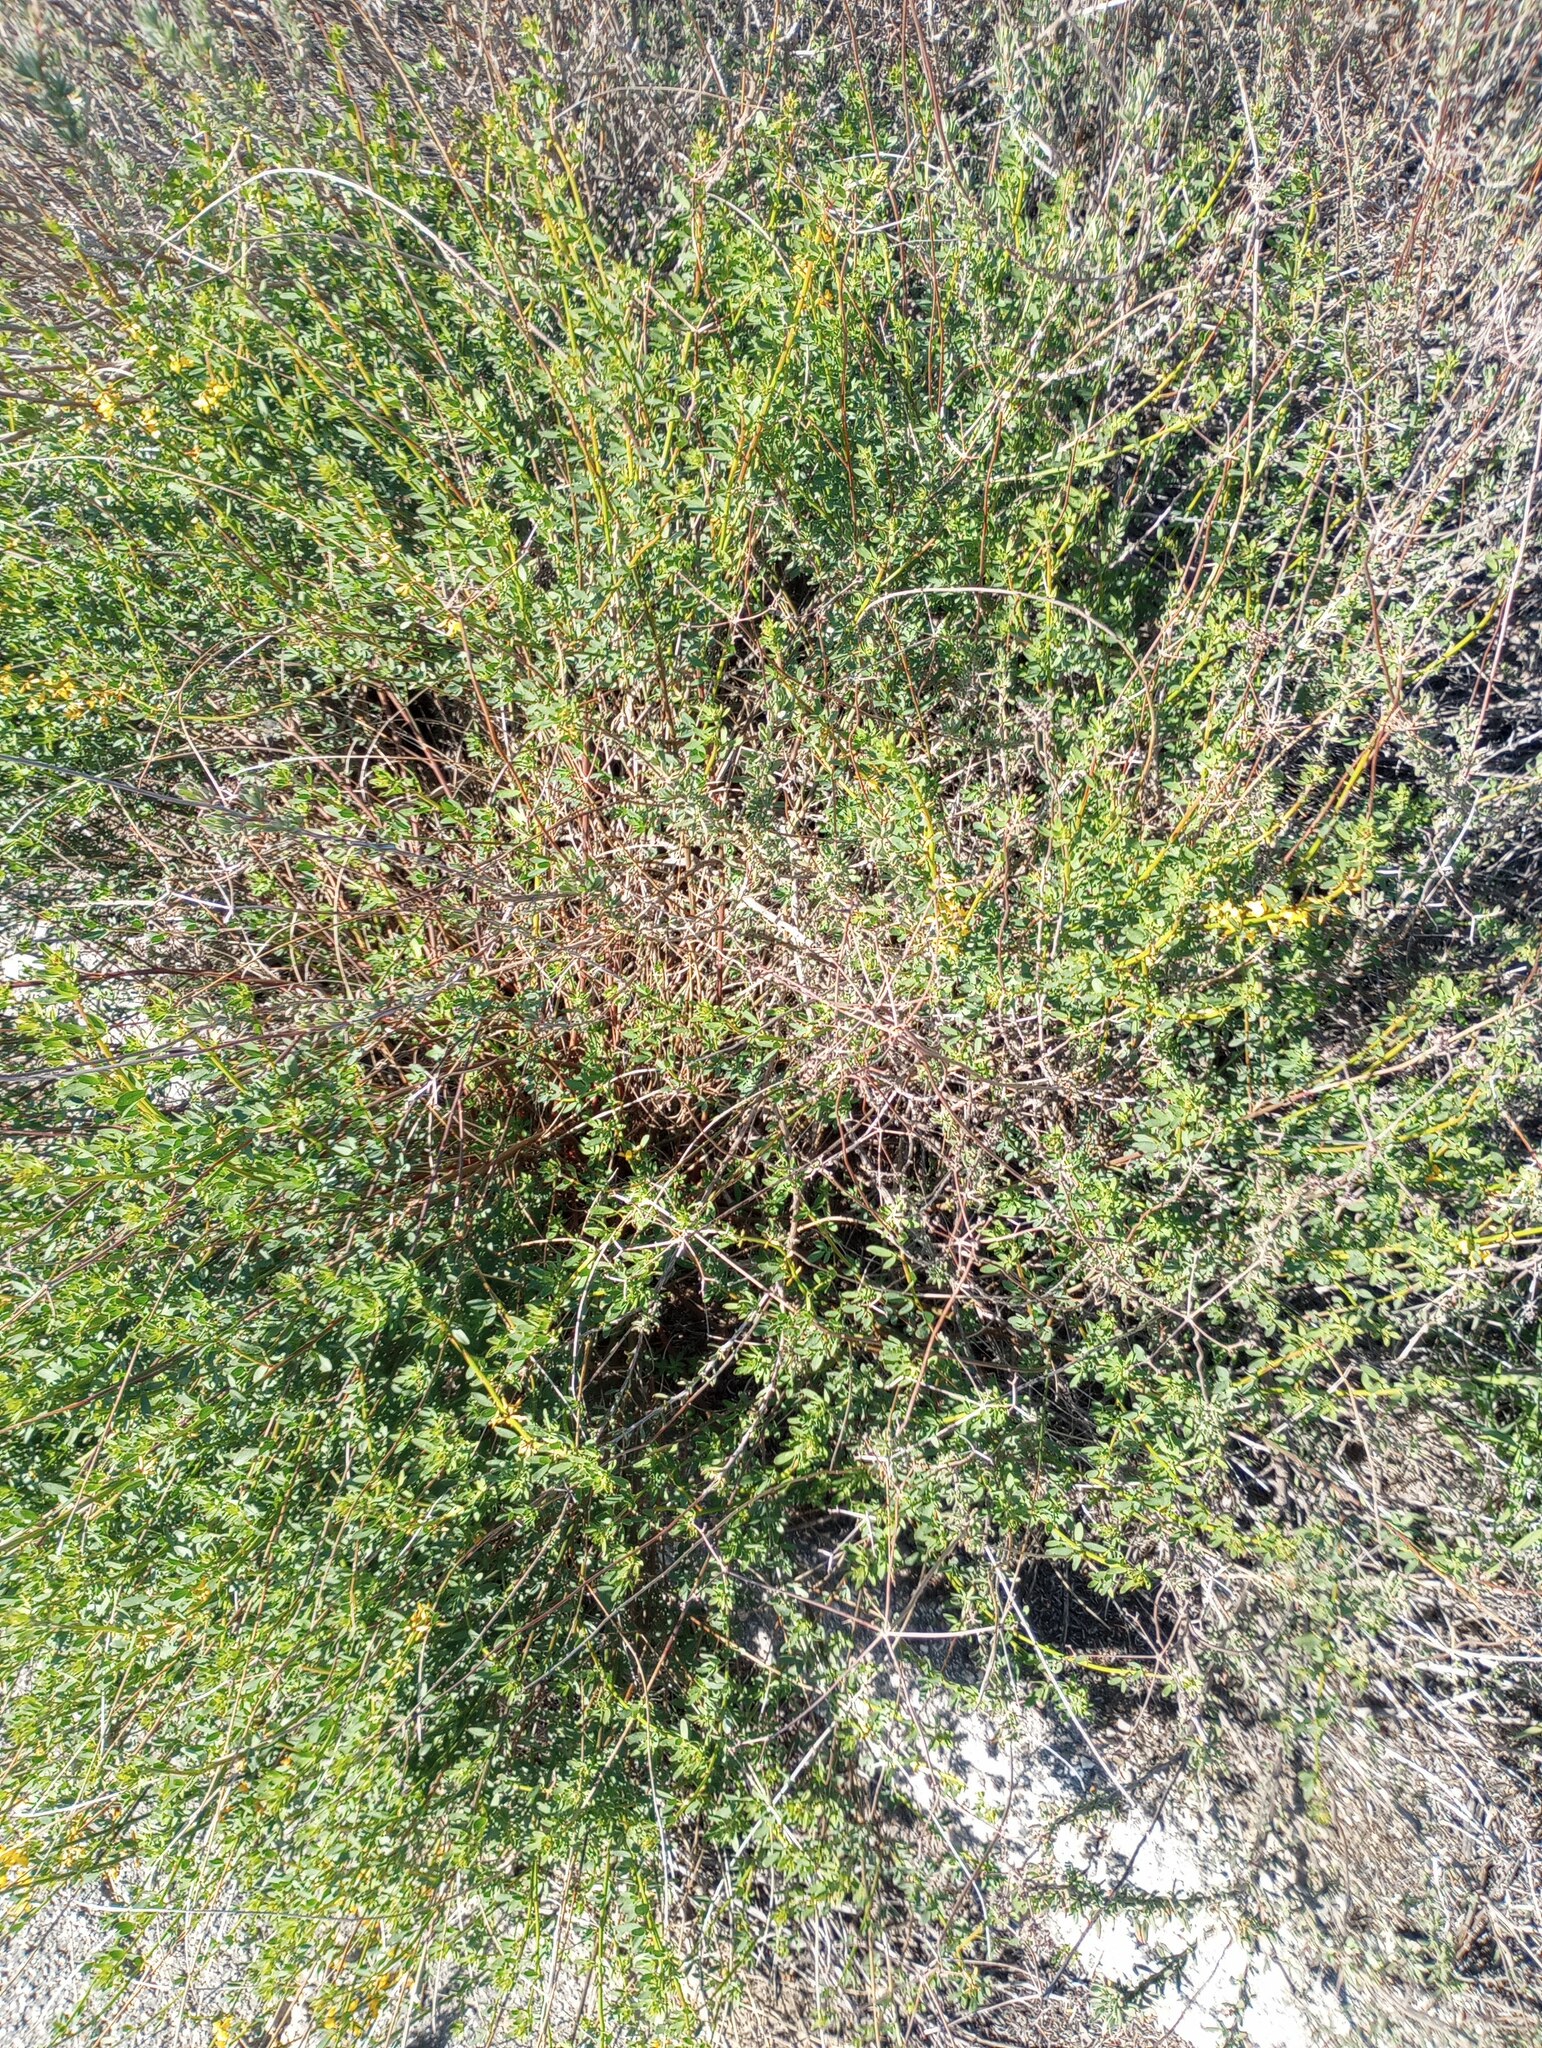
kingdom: Plantae
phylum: Tracheophyta
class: Magnoliopsida
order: Fabales
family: Fabaceae
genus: Acmispon
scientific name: Acmispon glaber
